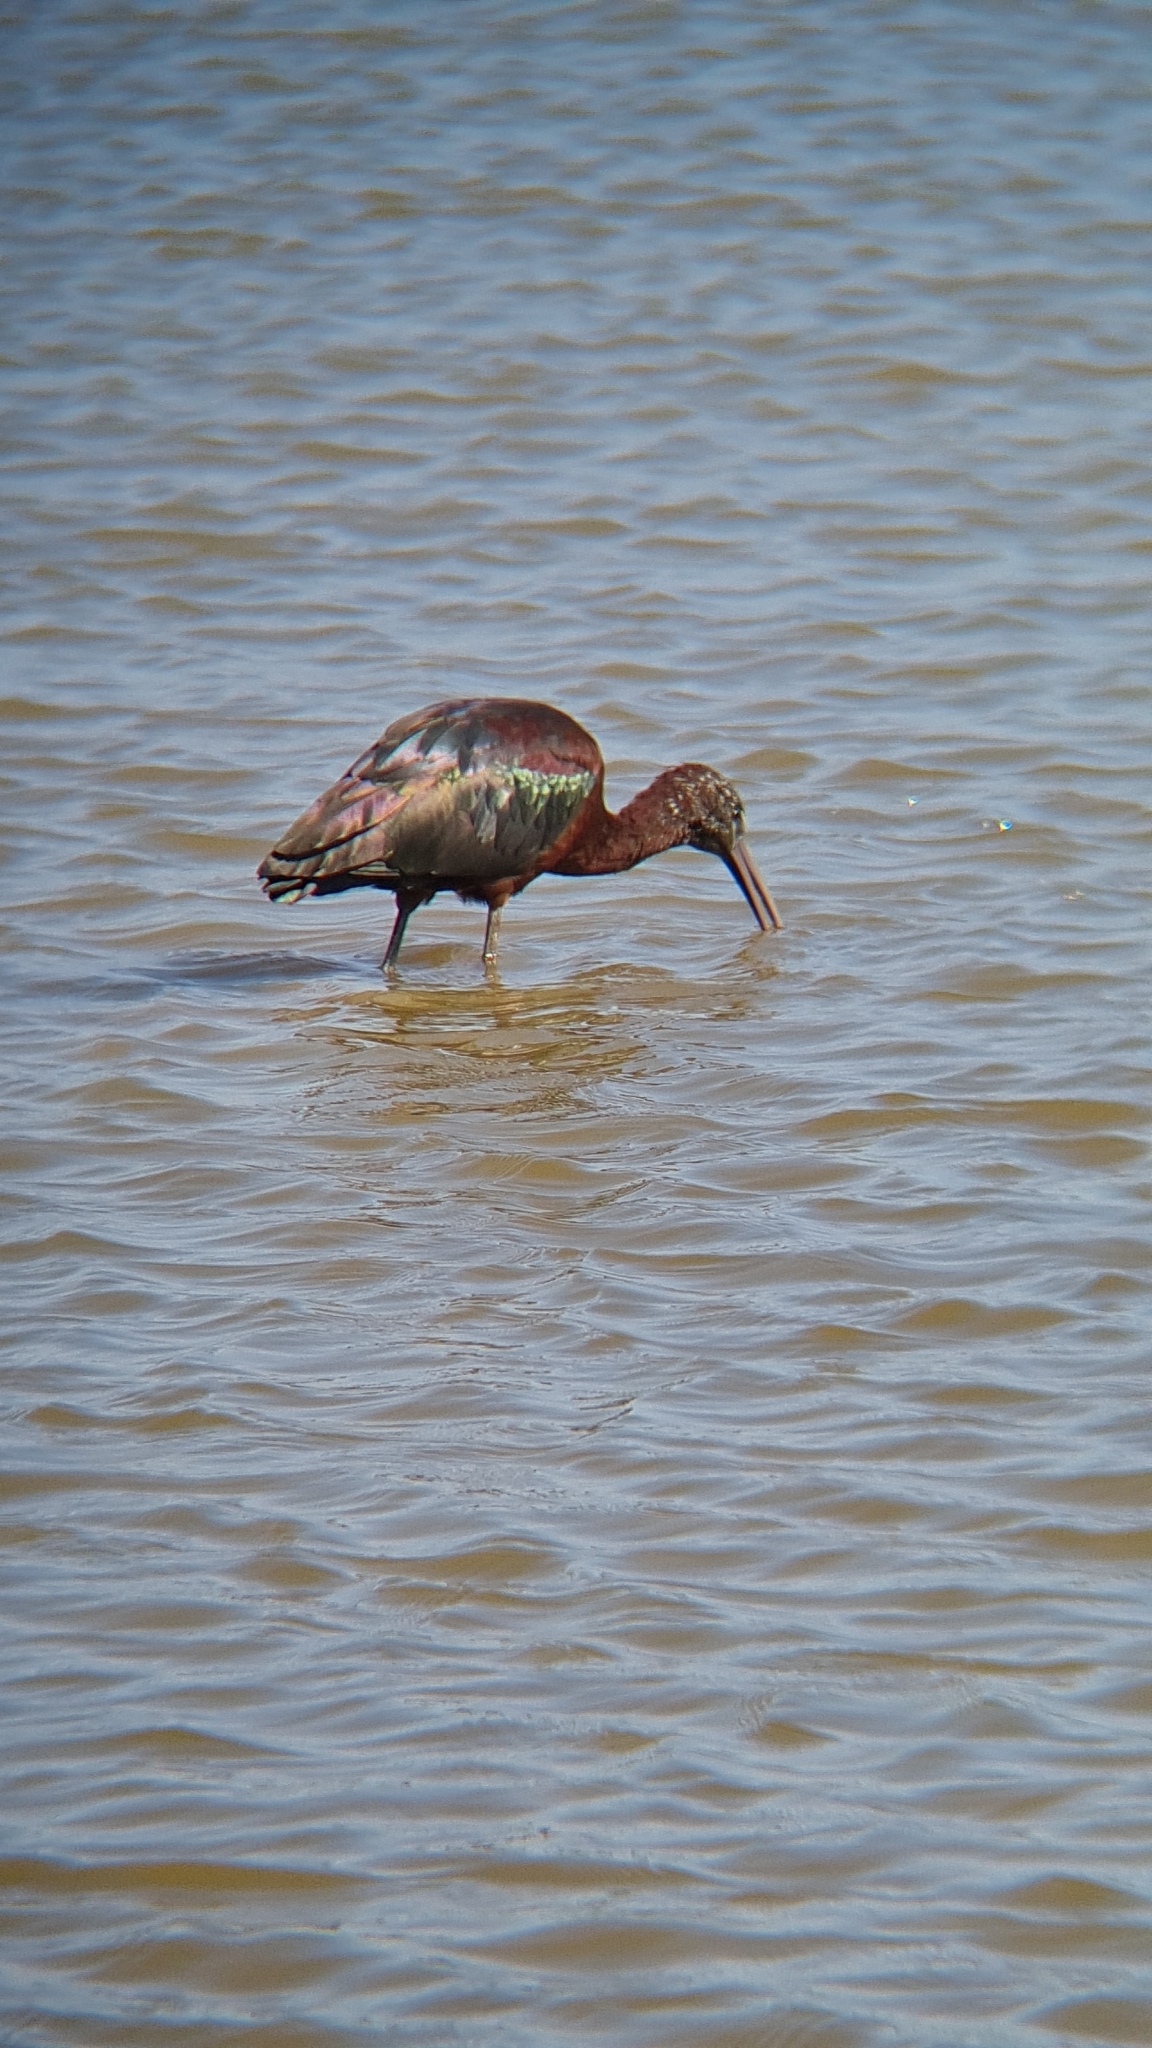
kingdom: Animalia
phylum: Chordata
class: Aves
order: Pelecaniformes
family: Threskiornithidae
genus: Plegadis
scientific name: Plegadis falcinellus
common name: Glossy ibis
